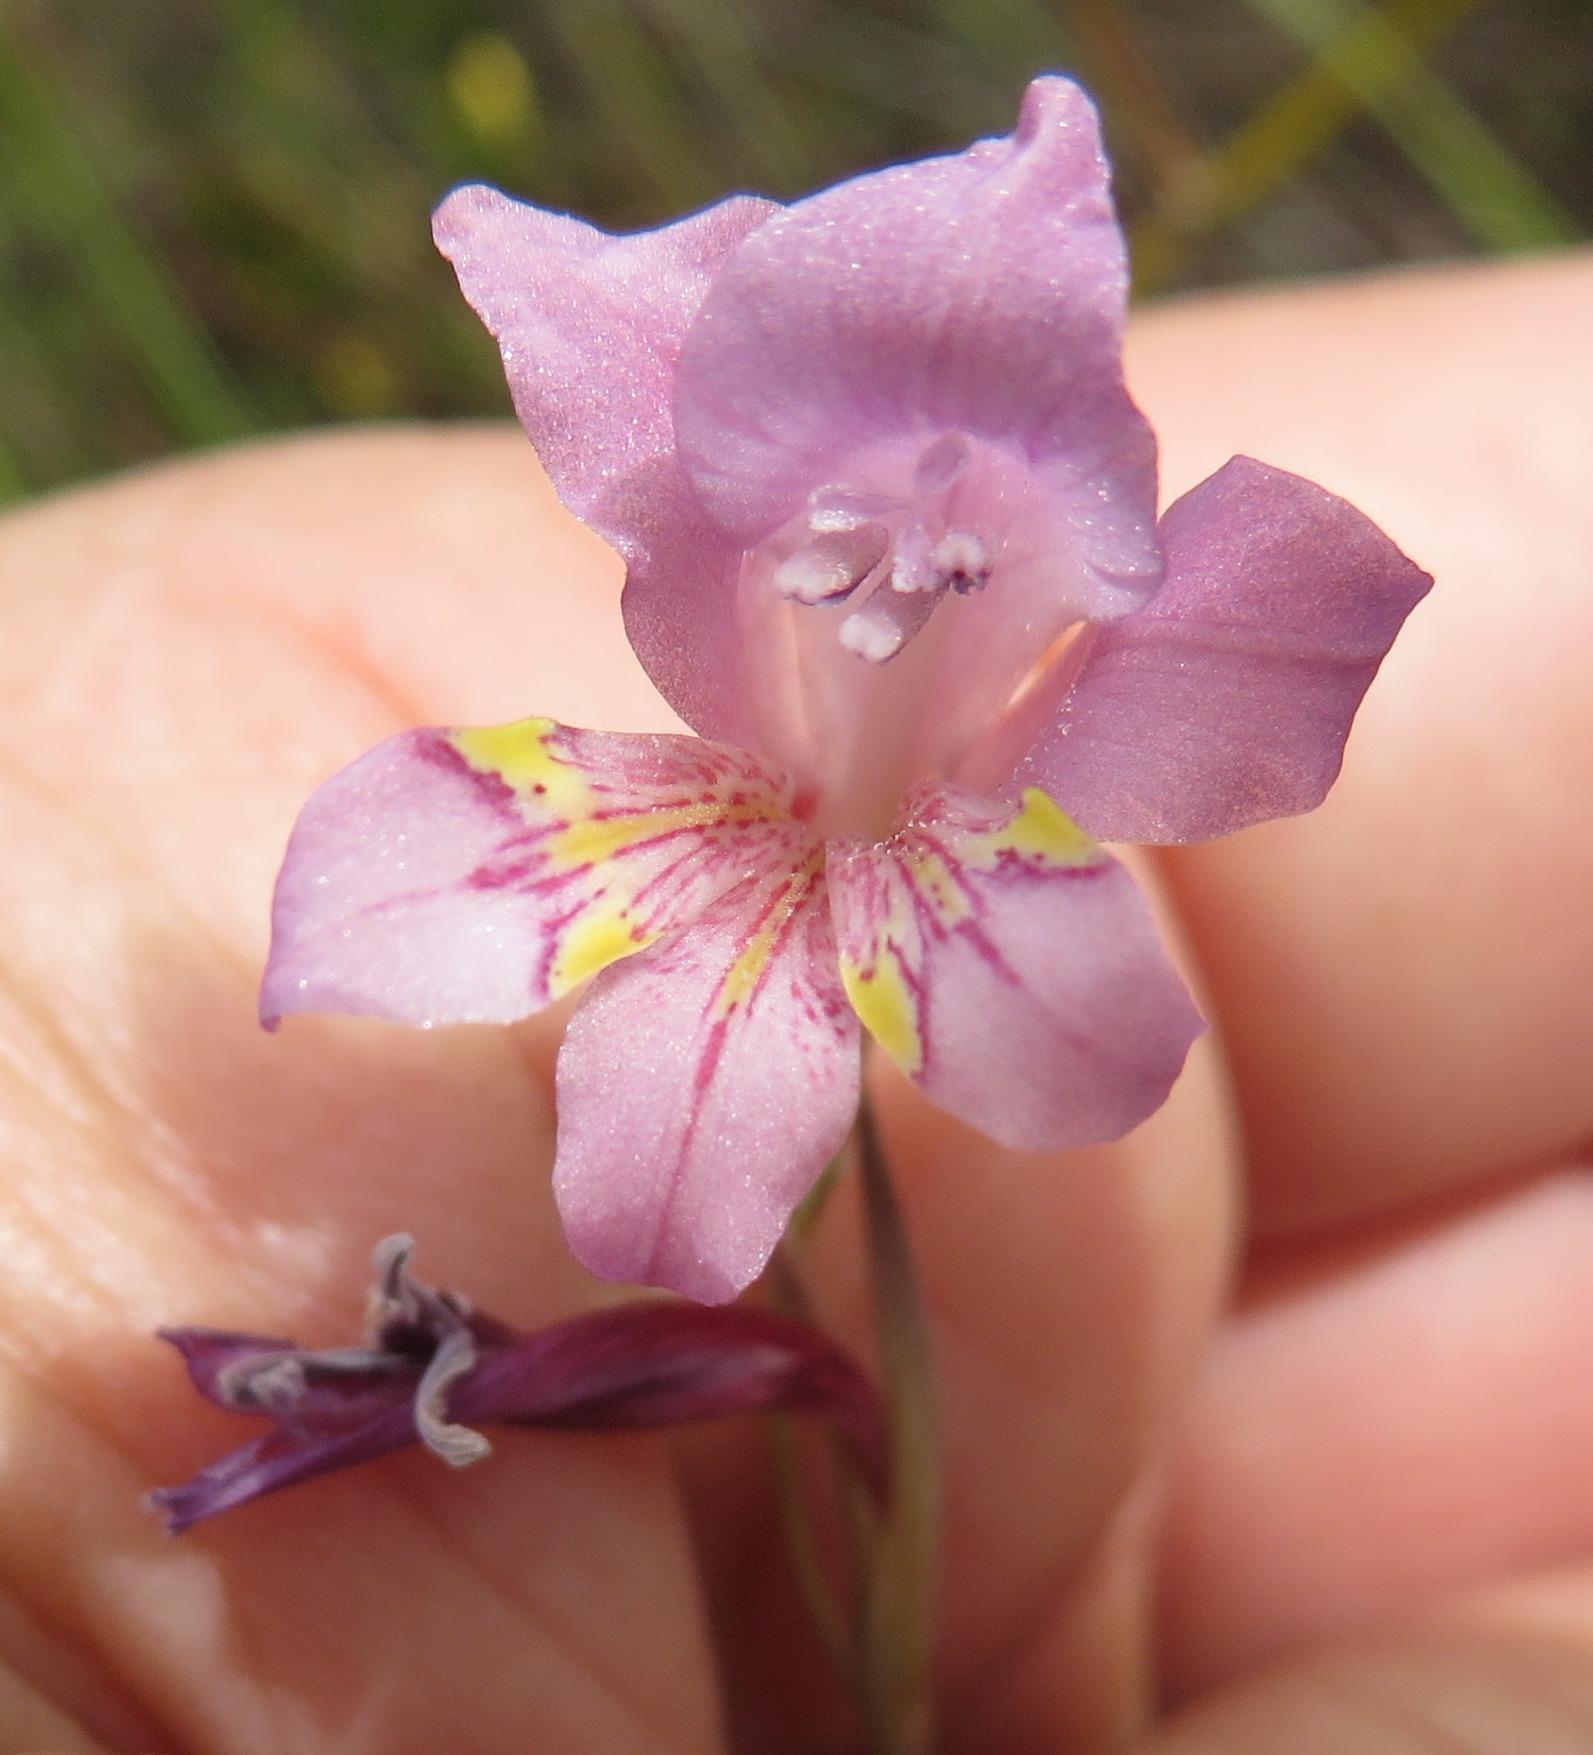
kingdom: Plantae
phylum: Tracheophyta
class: Liliopsida
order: Asparagales
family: Iridaceae
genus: Gladiolus
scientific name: Gladiolus brevifolius
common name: March pypie
